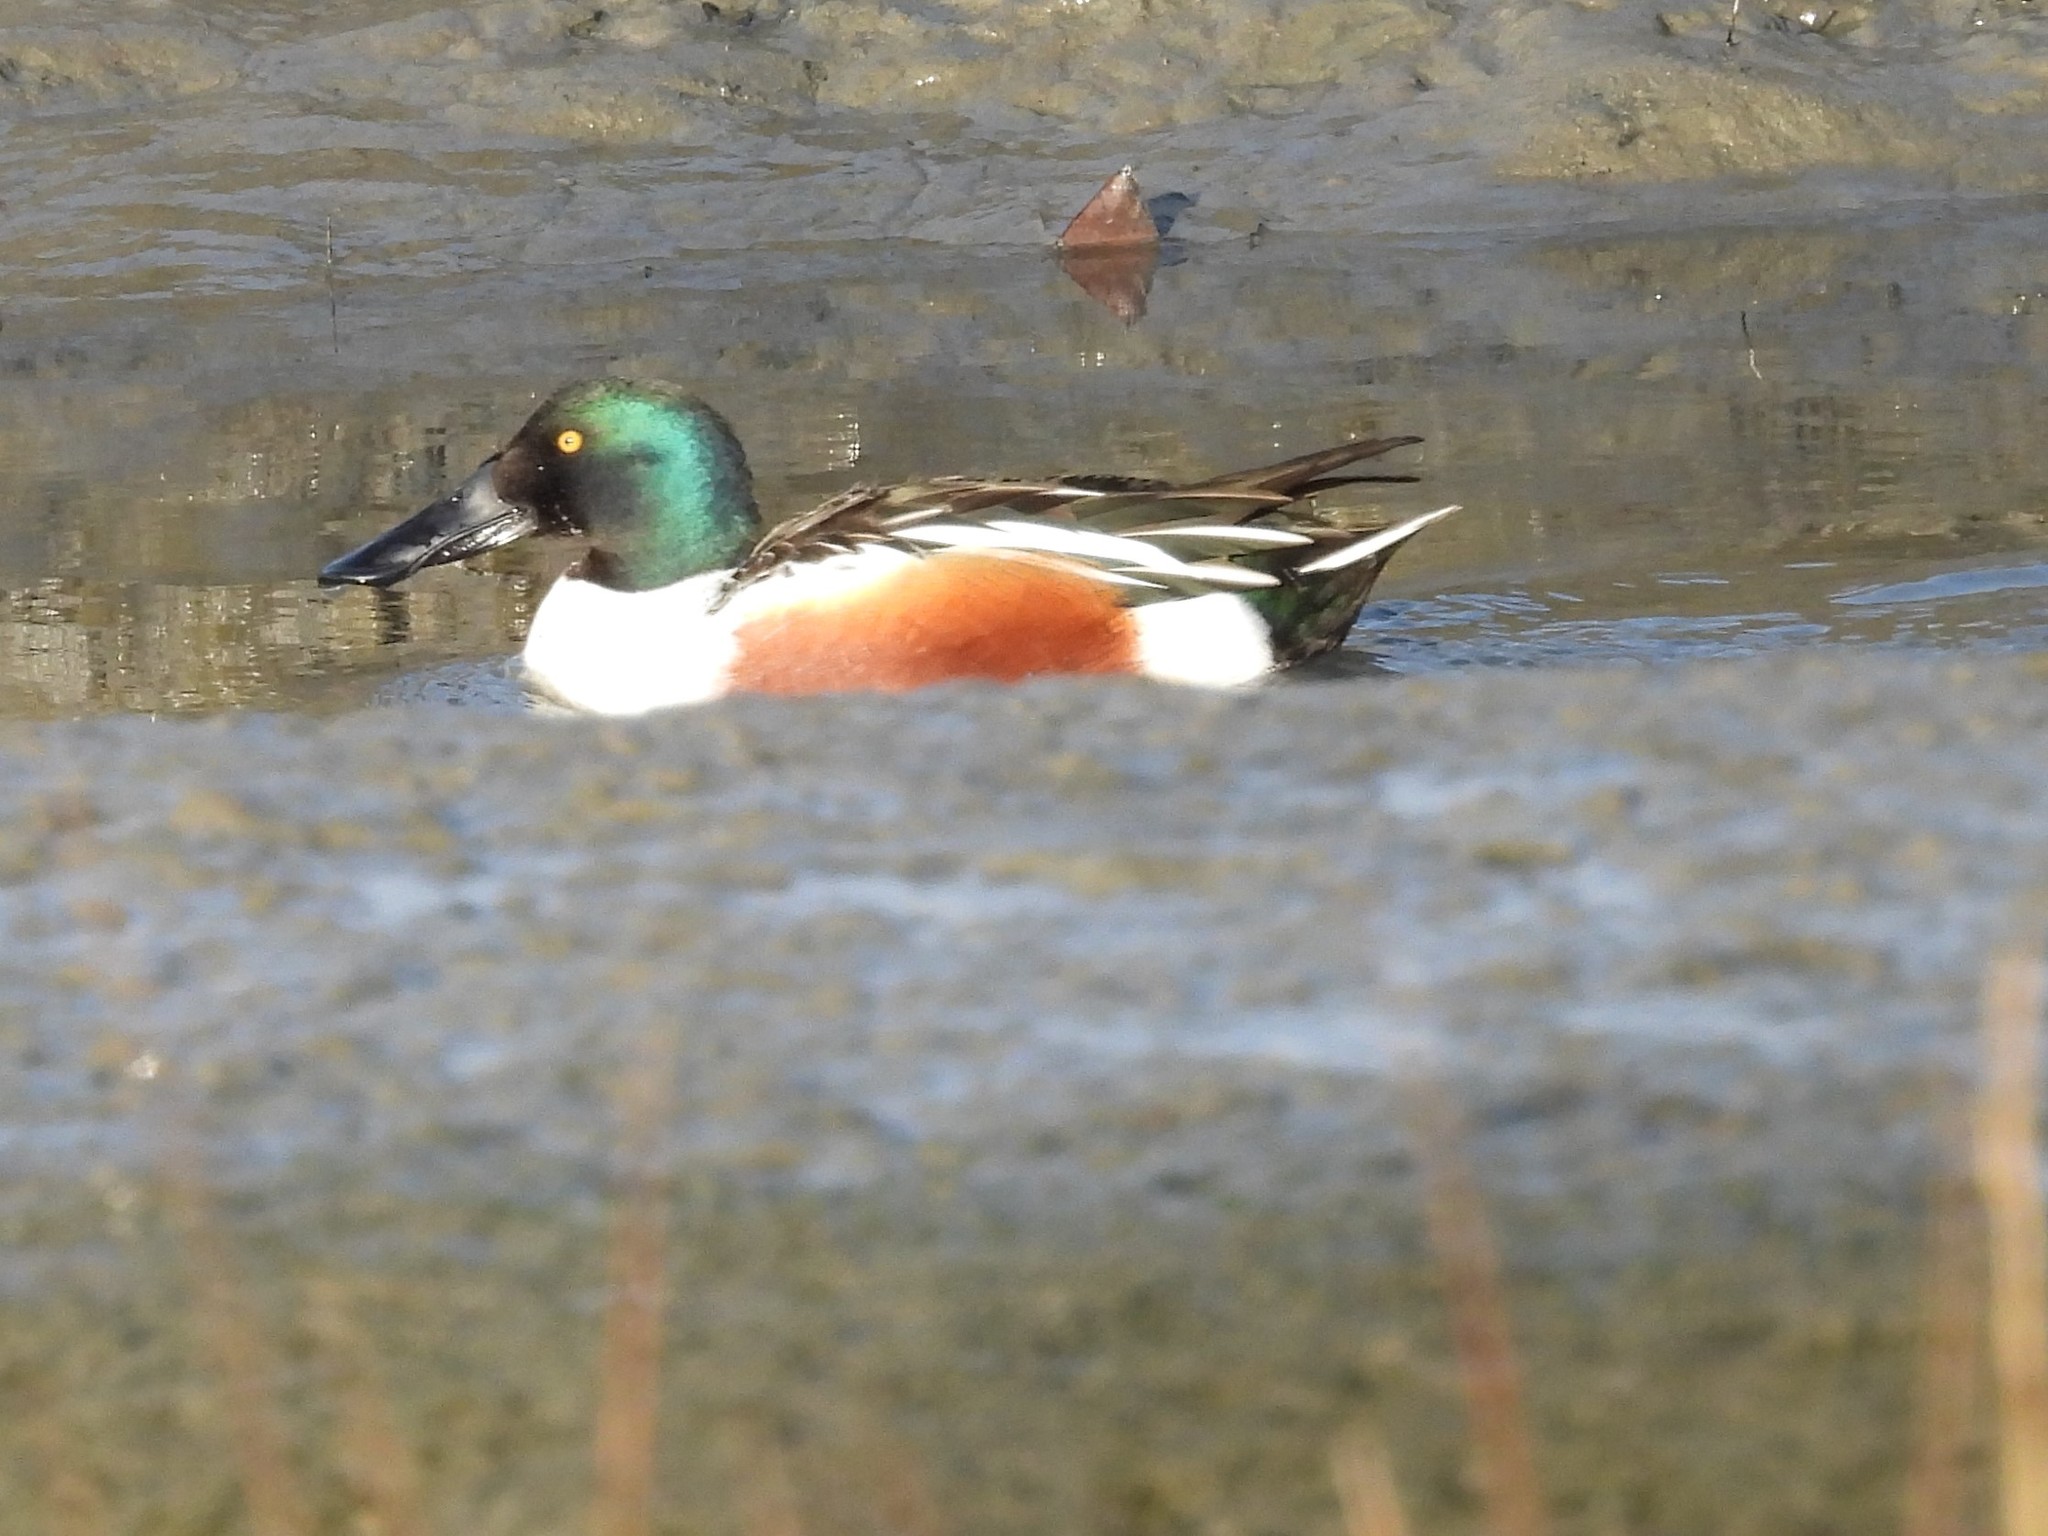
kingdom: Animalia
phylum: Chordata
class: Aves
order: Anseriformes
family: Anatidae
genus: Spatula
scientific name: Spatula clypeata
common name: Northern shoveler
